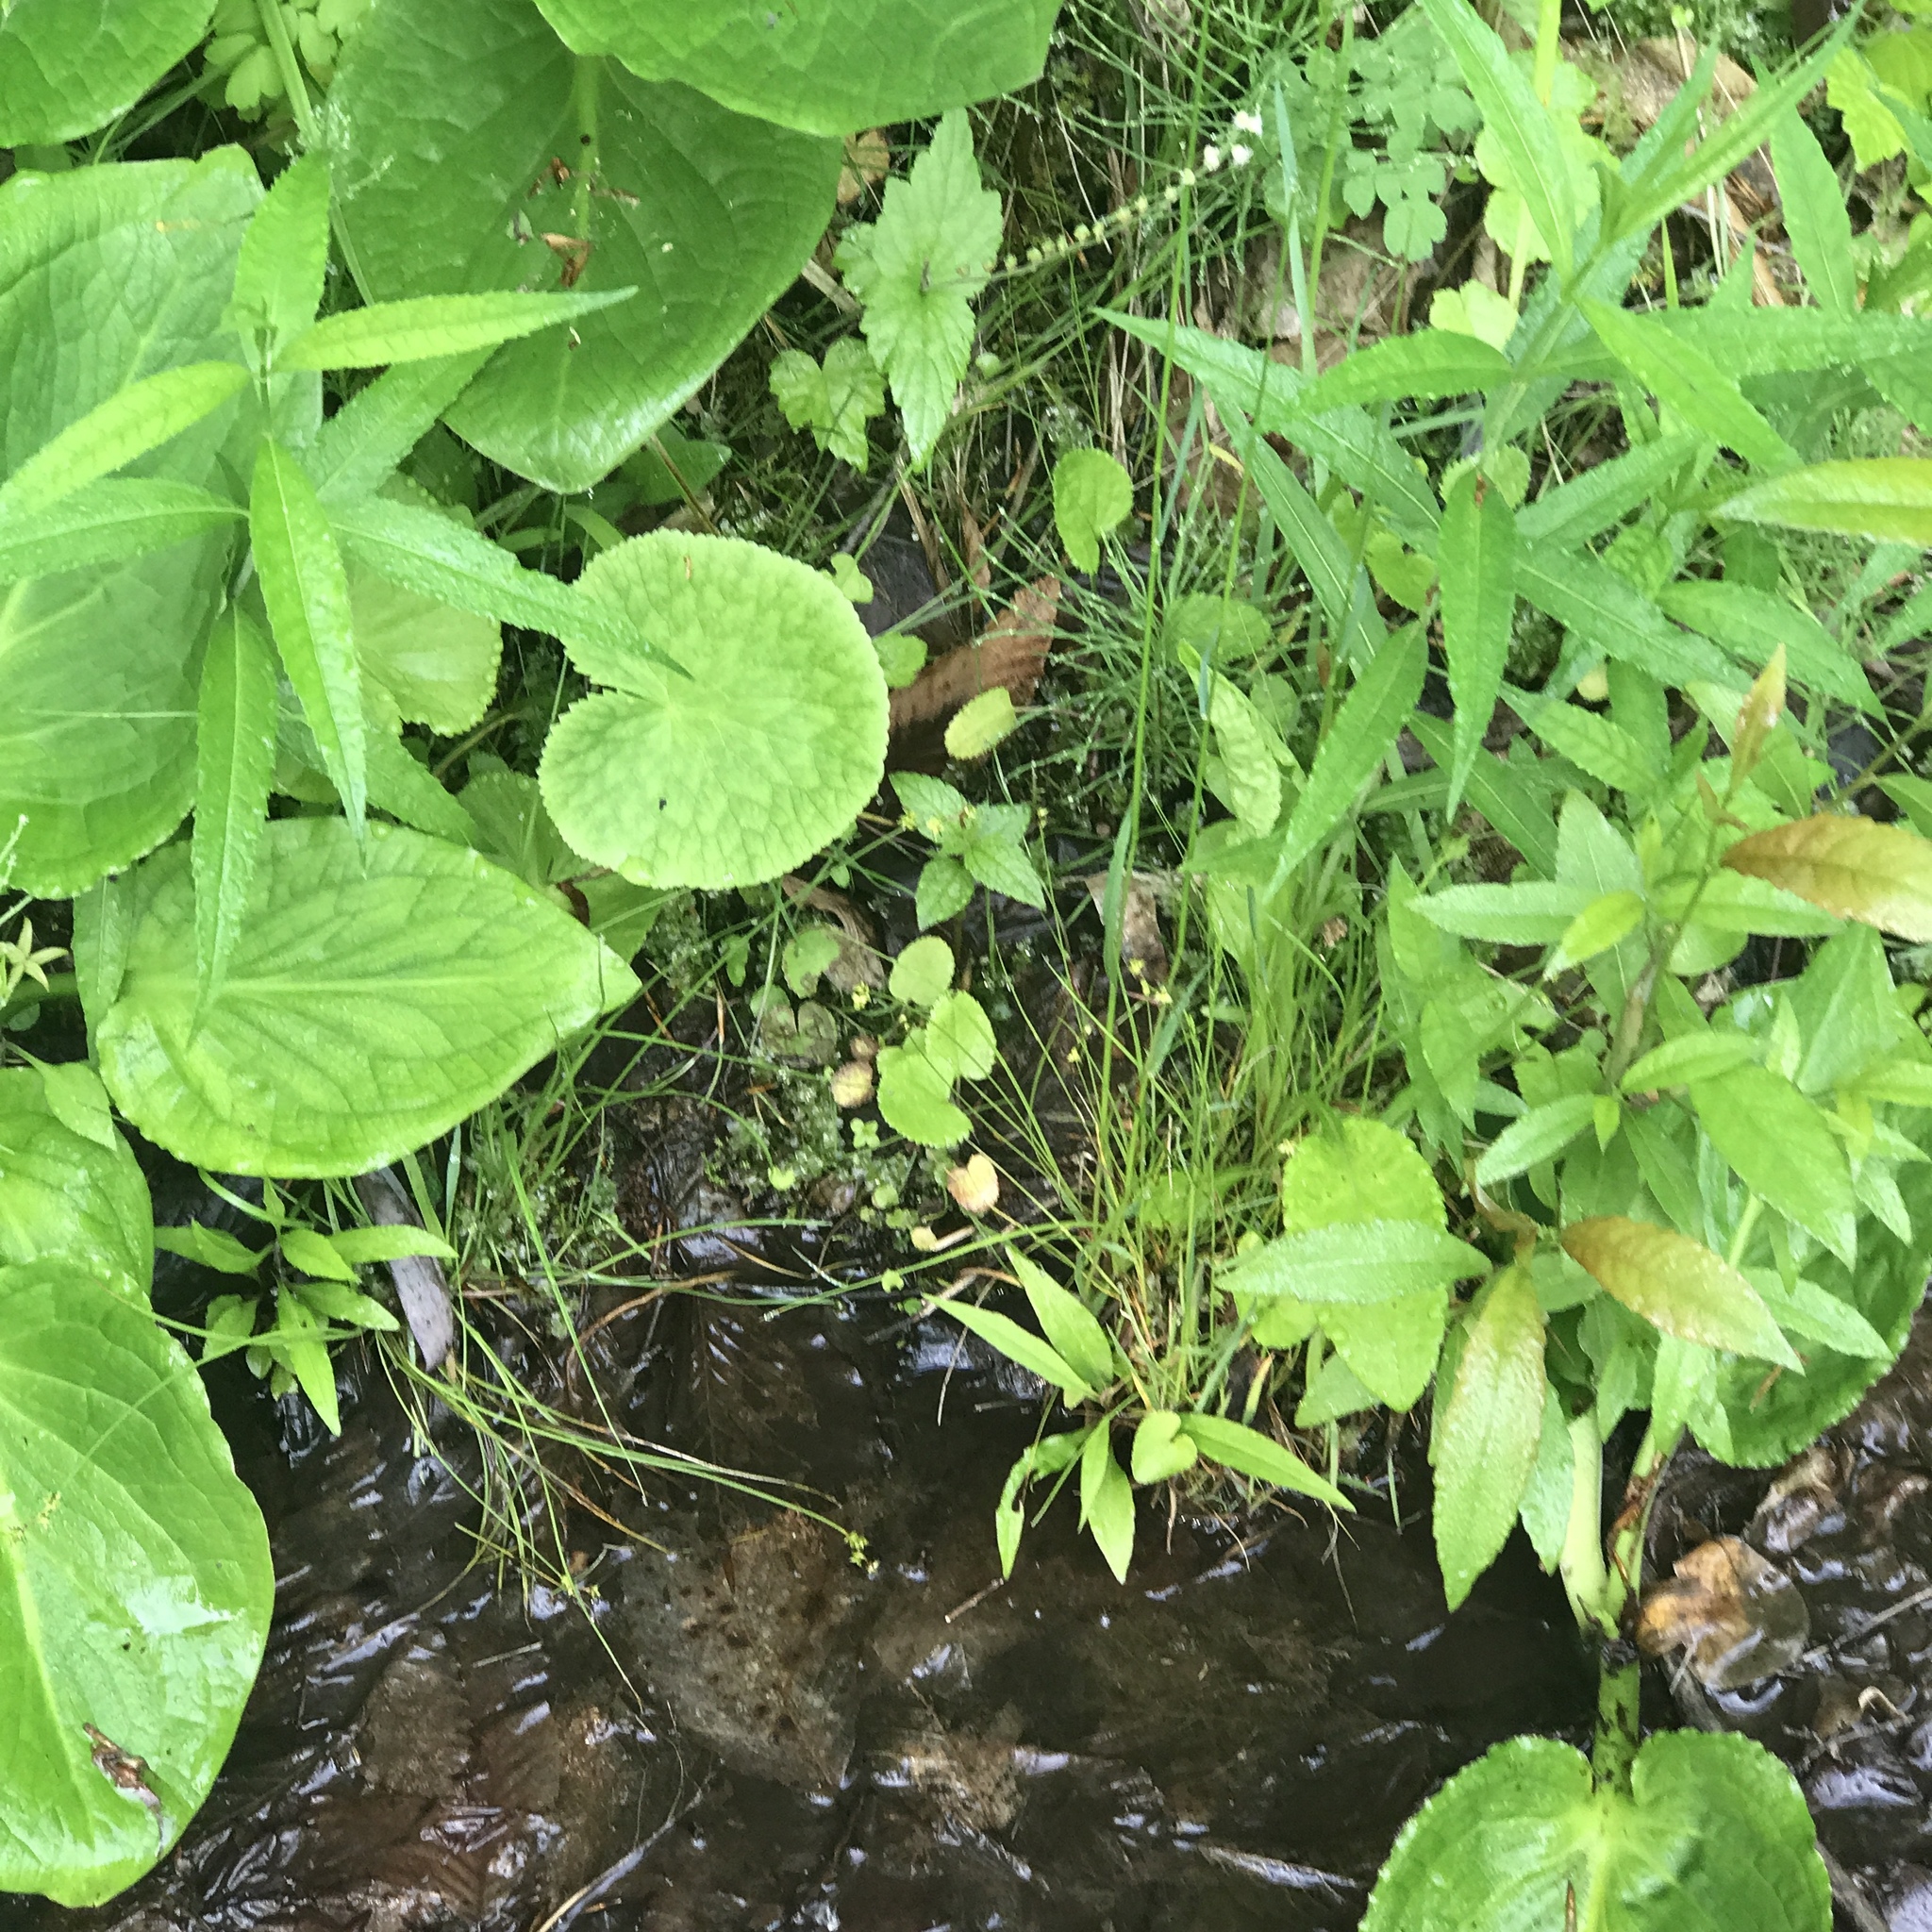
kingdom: Plantae
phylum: Tracheophyta
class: Magnoliopsida
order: Saxifragales
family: Saxifragaceae
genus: Mitella
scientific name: Mitella diphylla
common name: Coolwort
